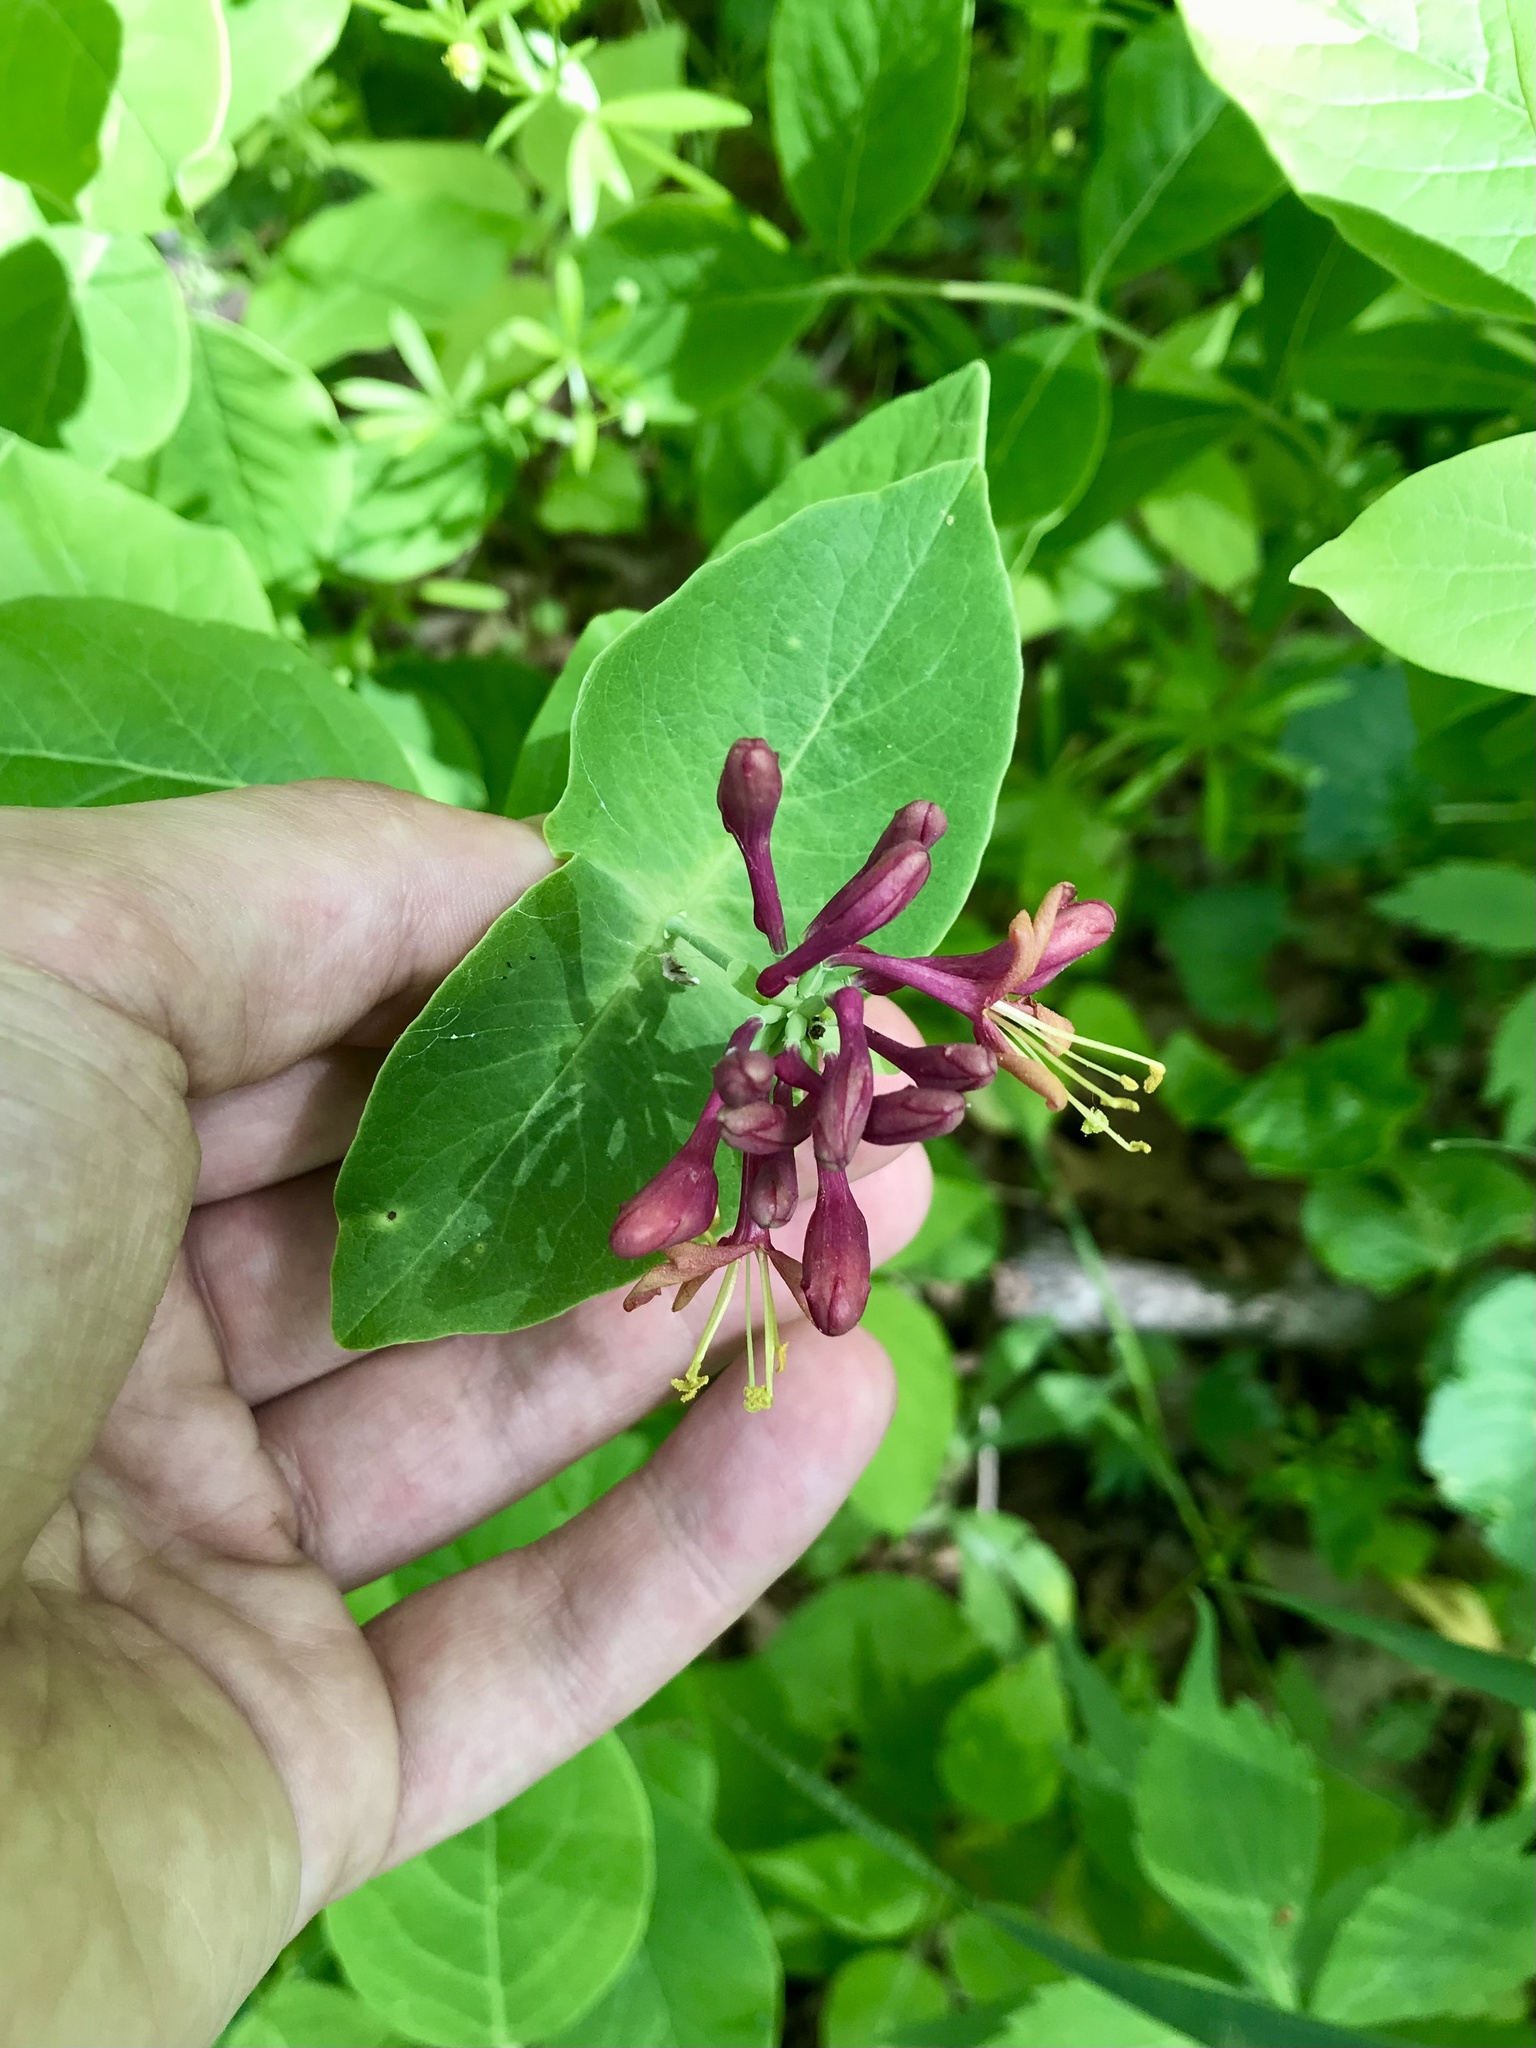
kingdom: Plantae
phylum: Tracheophyta
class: Magnoliopsida
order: Dipsacales
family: Caprifoliaceae
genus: Lonicera
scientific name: Lonicera dioica
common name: Limber honeysuckle
